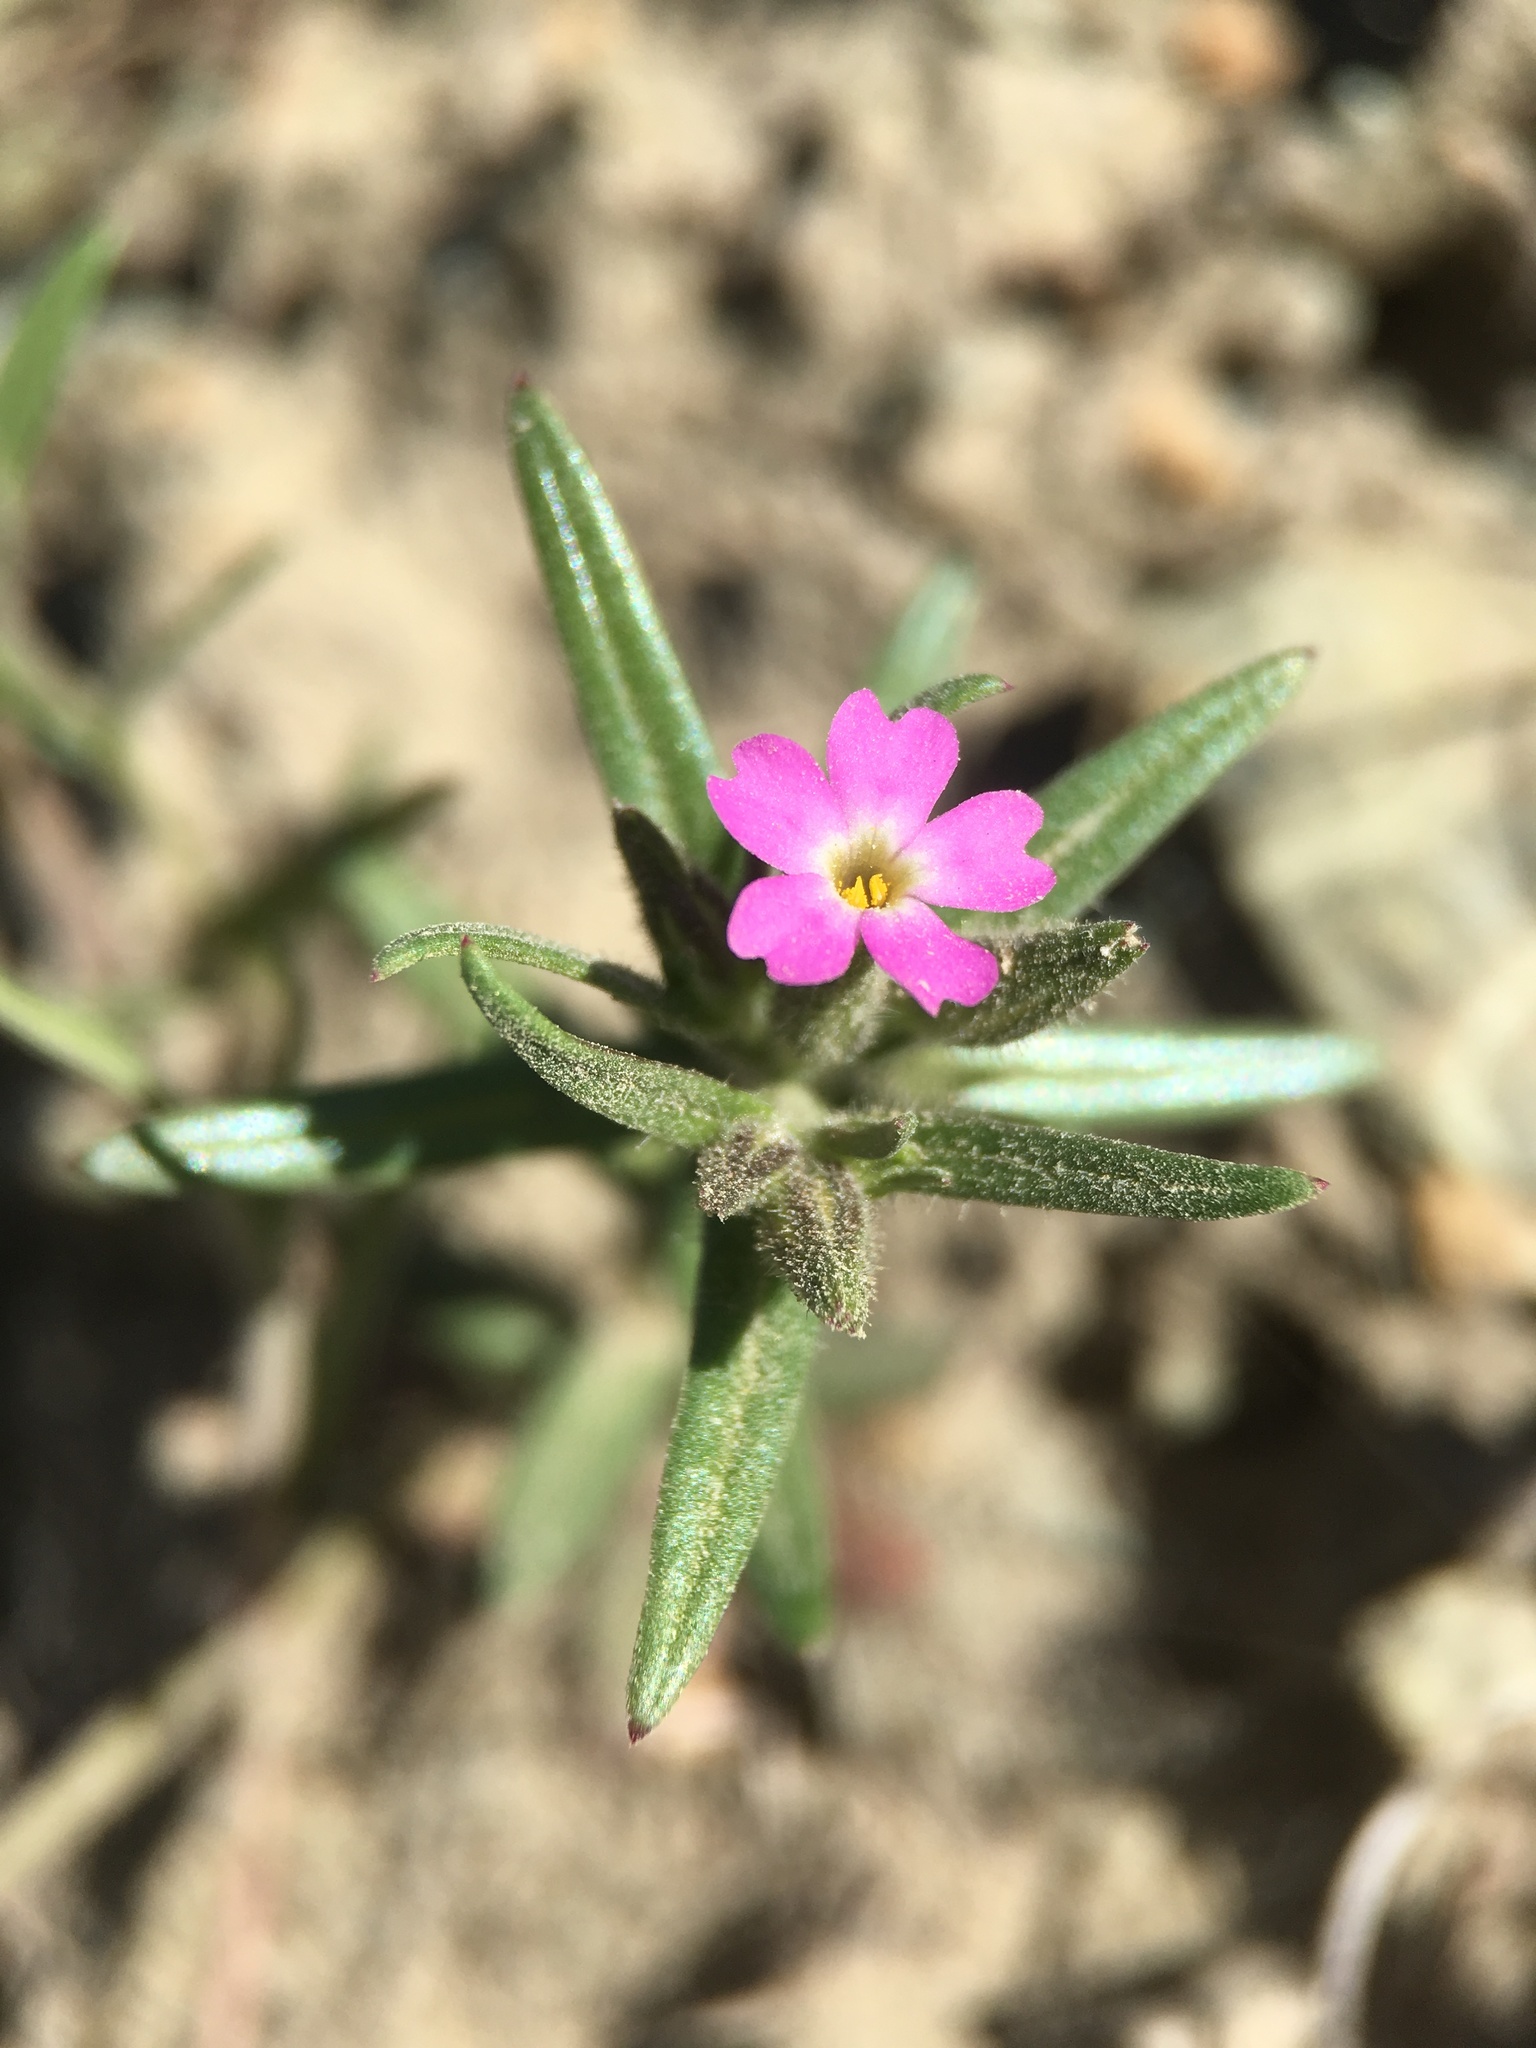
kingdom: Plantae
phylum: Tracheophyta
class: Magnoliopsida
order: Ericales
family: Polemoniaceae
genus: Phlox
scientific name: Phlox gracilis
